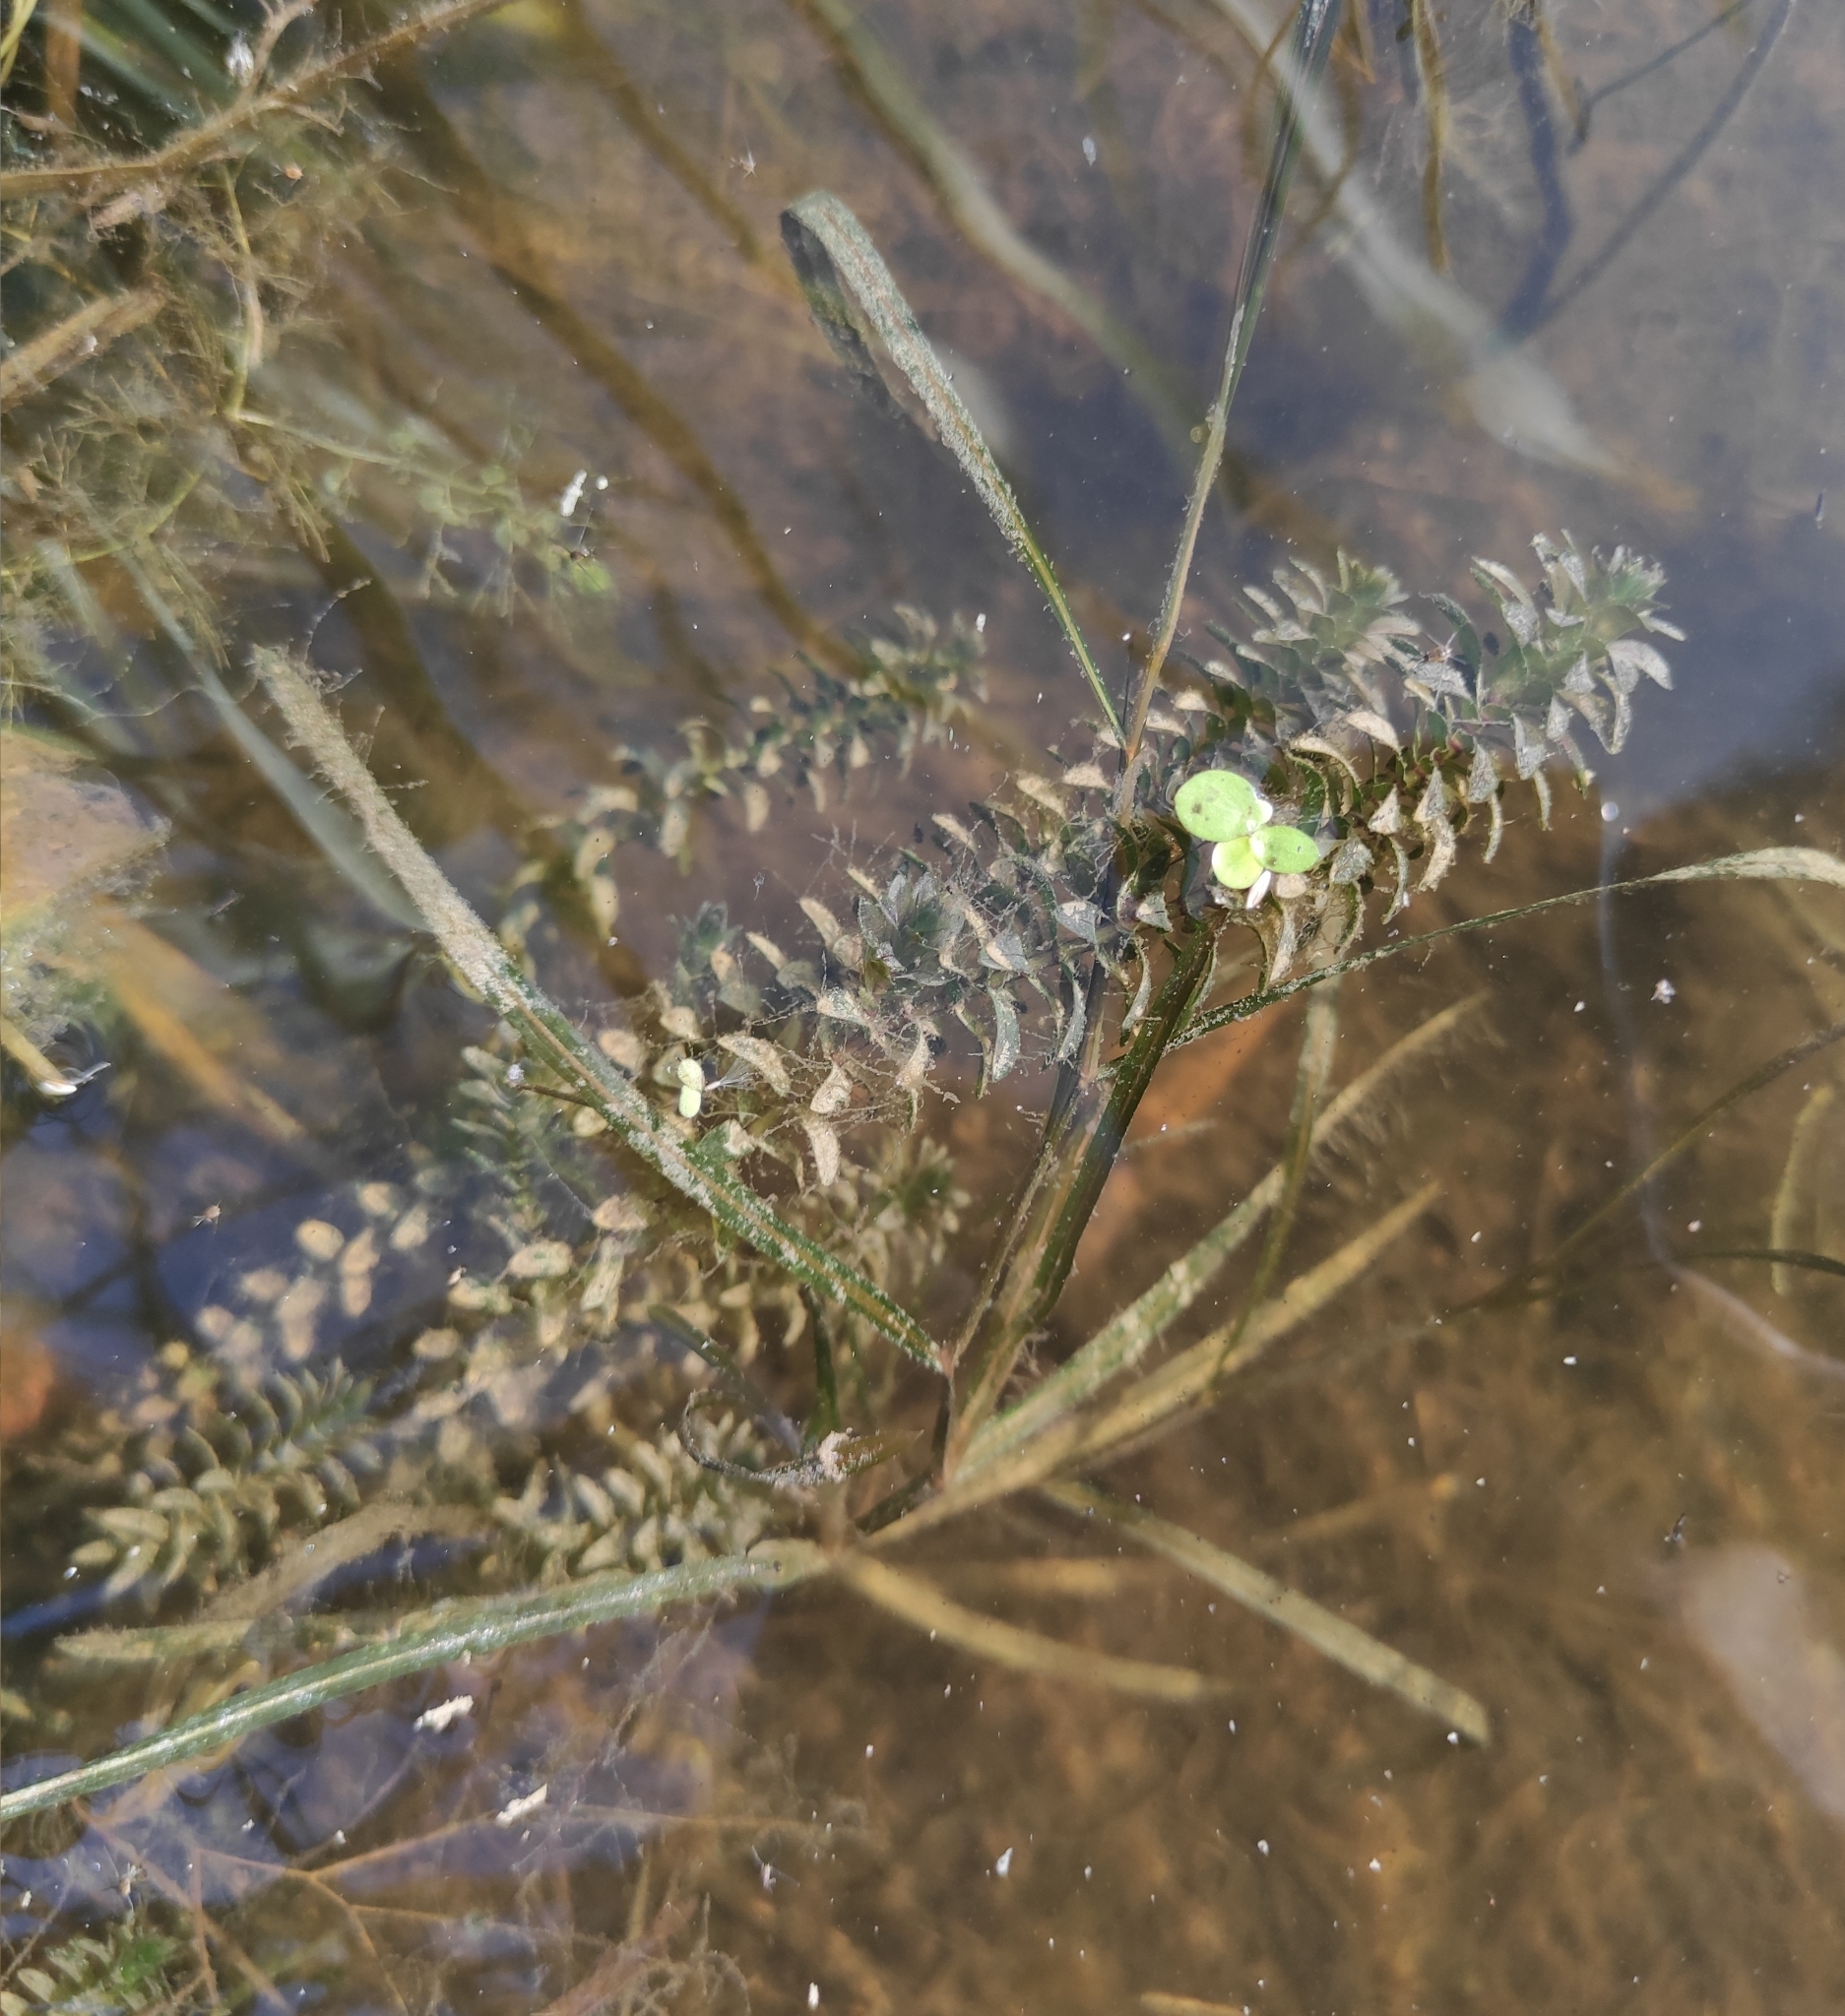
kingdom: Plantae
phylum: Tracheophyta
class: Liliopsida
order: Alismatales
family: Hydrocharitaceae
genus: Elodea
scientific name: Elodea canadensis
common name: Canadian waterweed
